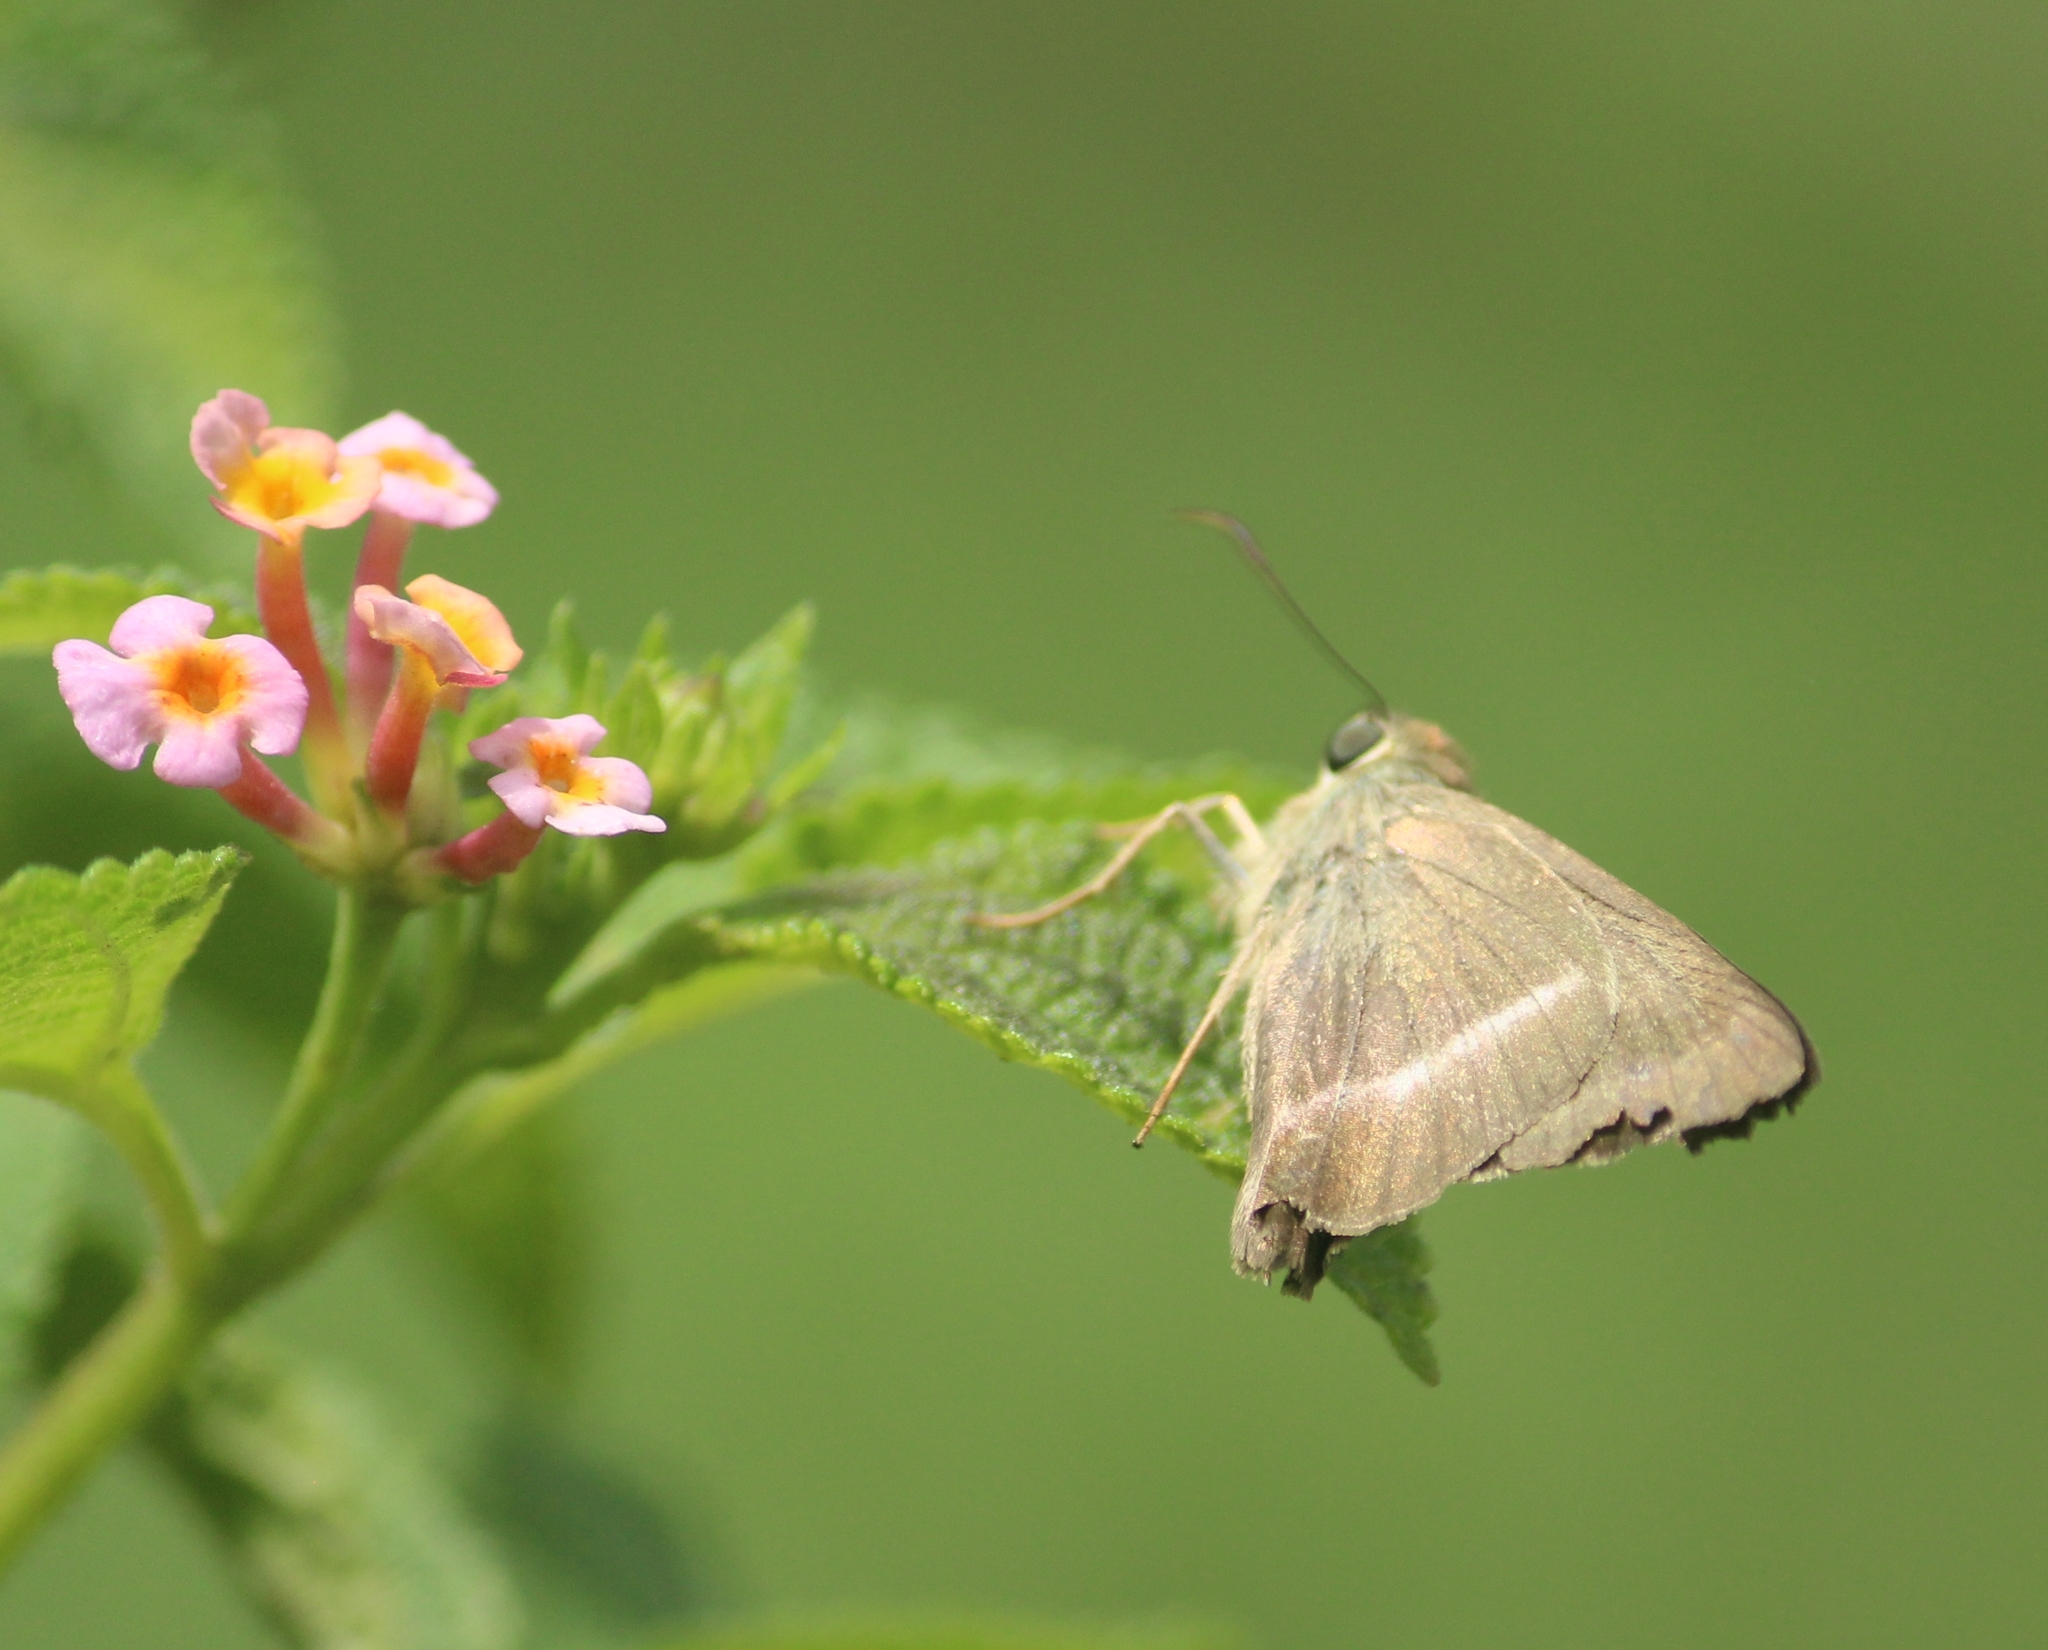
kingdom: Animalia
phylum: Arthropoda
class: Insecta
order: Lepidoptera
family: Hesperiidae
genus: Hasora
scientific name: Hasora chromus
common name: Common banded awl
